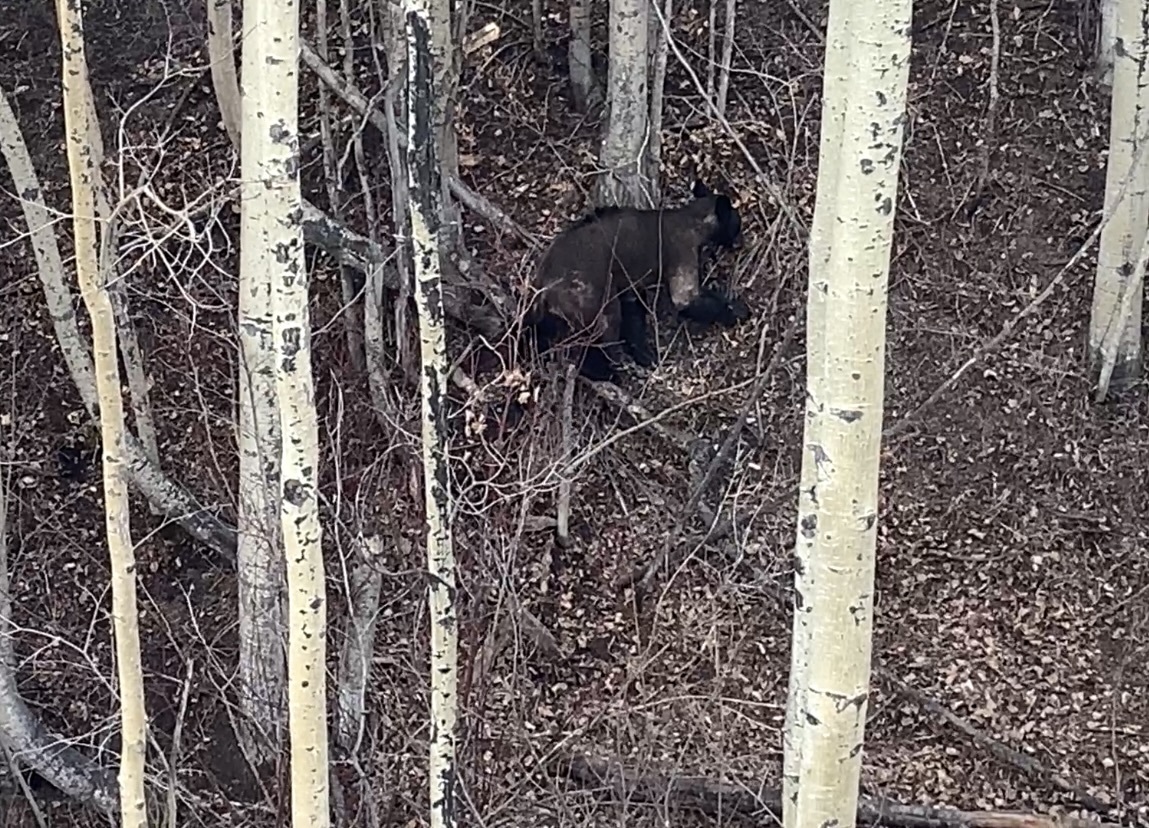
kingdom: Animalia
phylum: Chordata
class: Mammalia
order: Carnivora
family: Ursidae
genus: Ursus
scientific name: Ursus americanus
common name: American black bear
